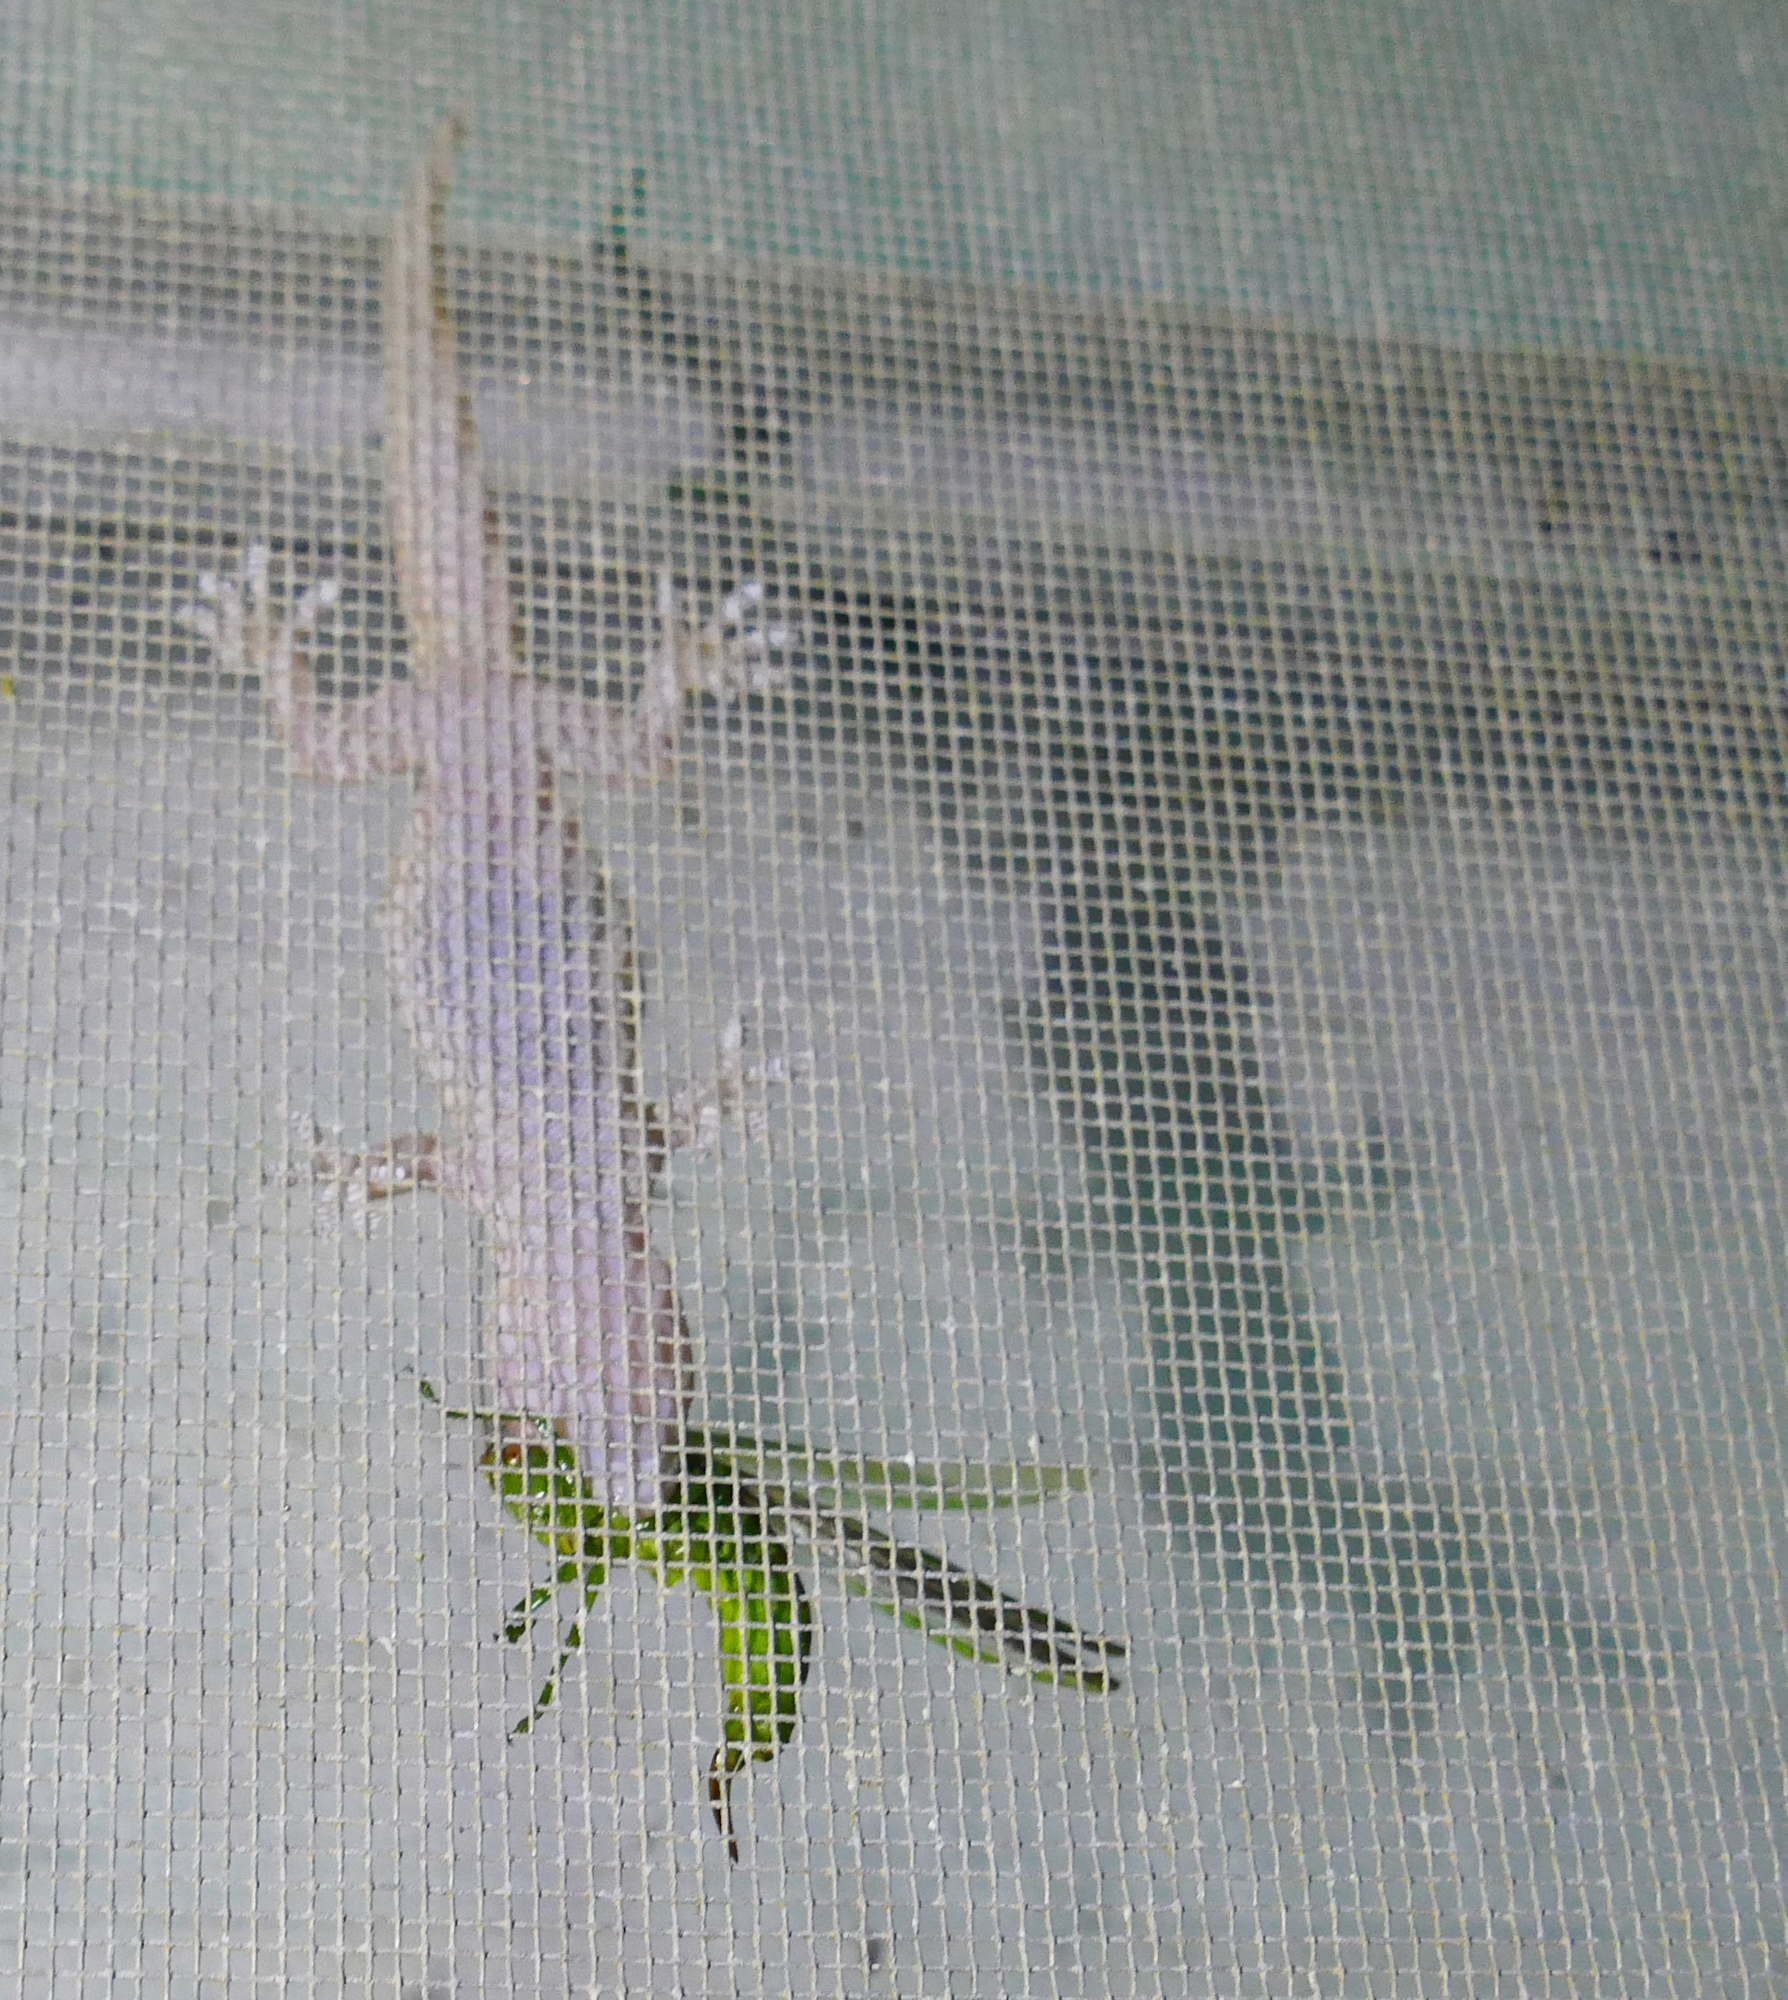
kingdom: Animalia
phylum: Chordata
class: Squamata
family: Gekkonidae
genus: Hemidactylus
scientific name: Hemidactylus turcicus
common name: Turkish gecko
